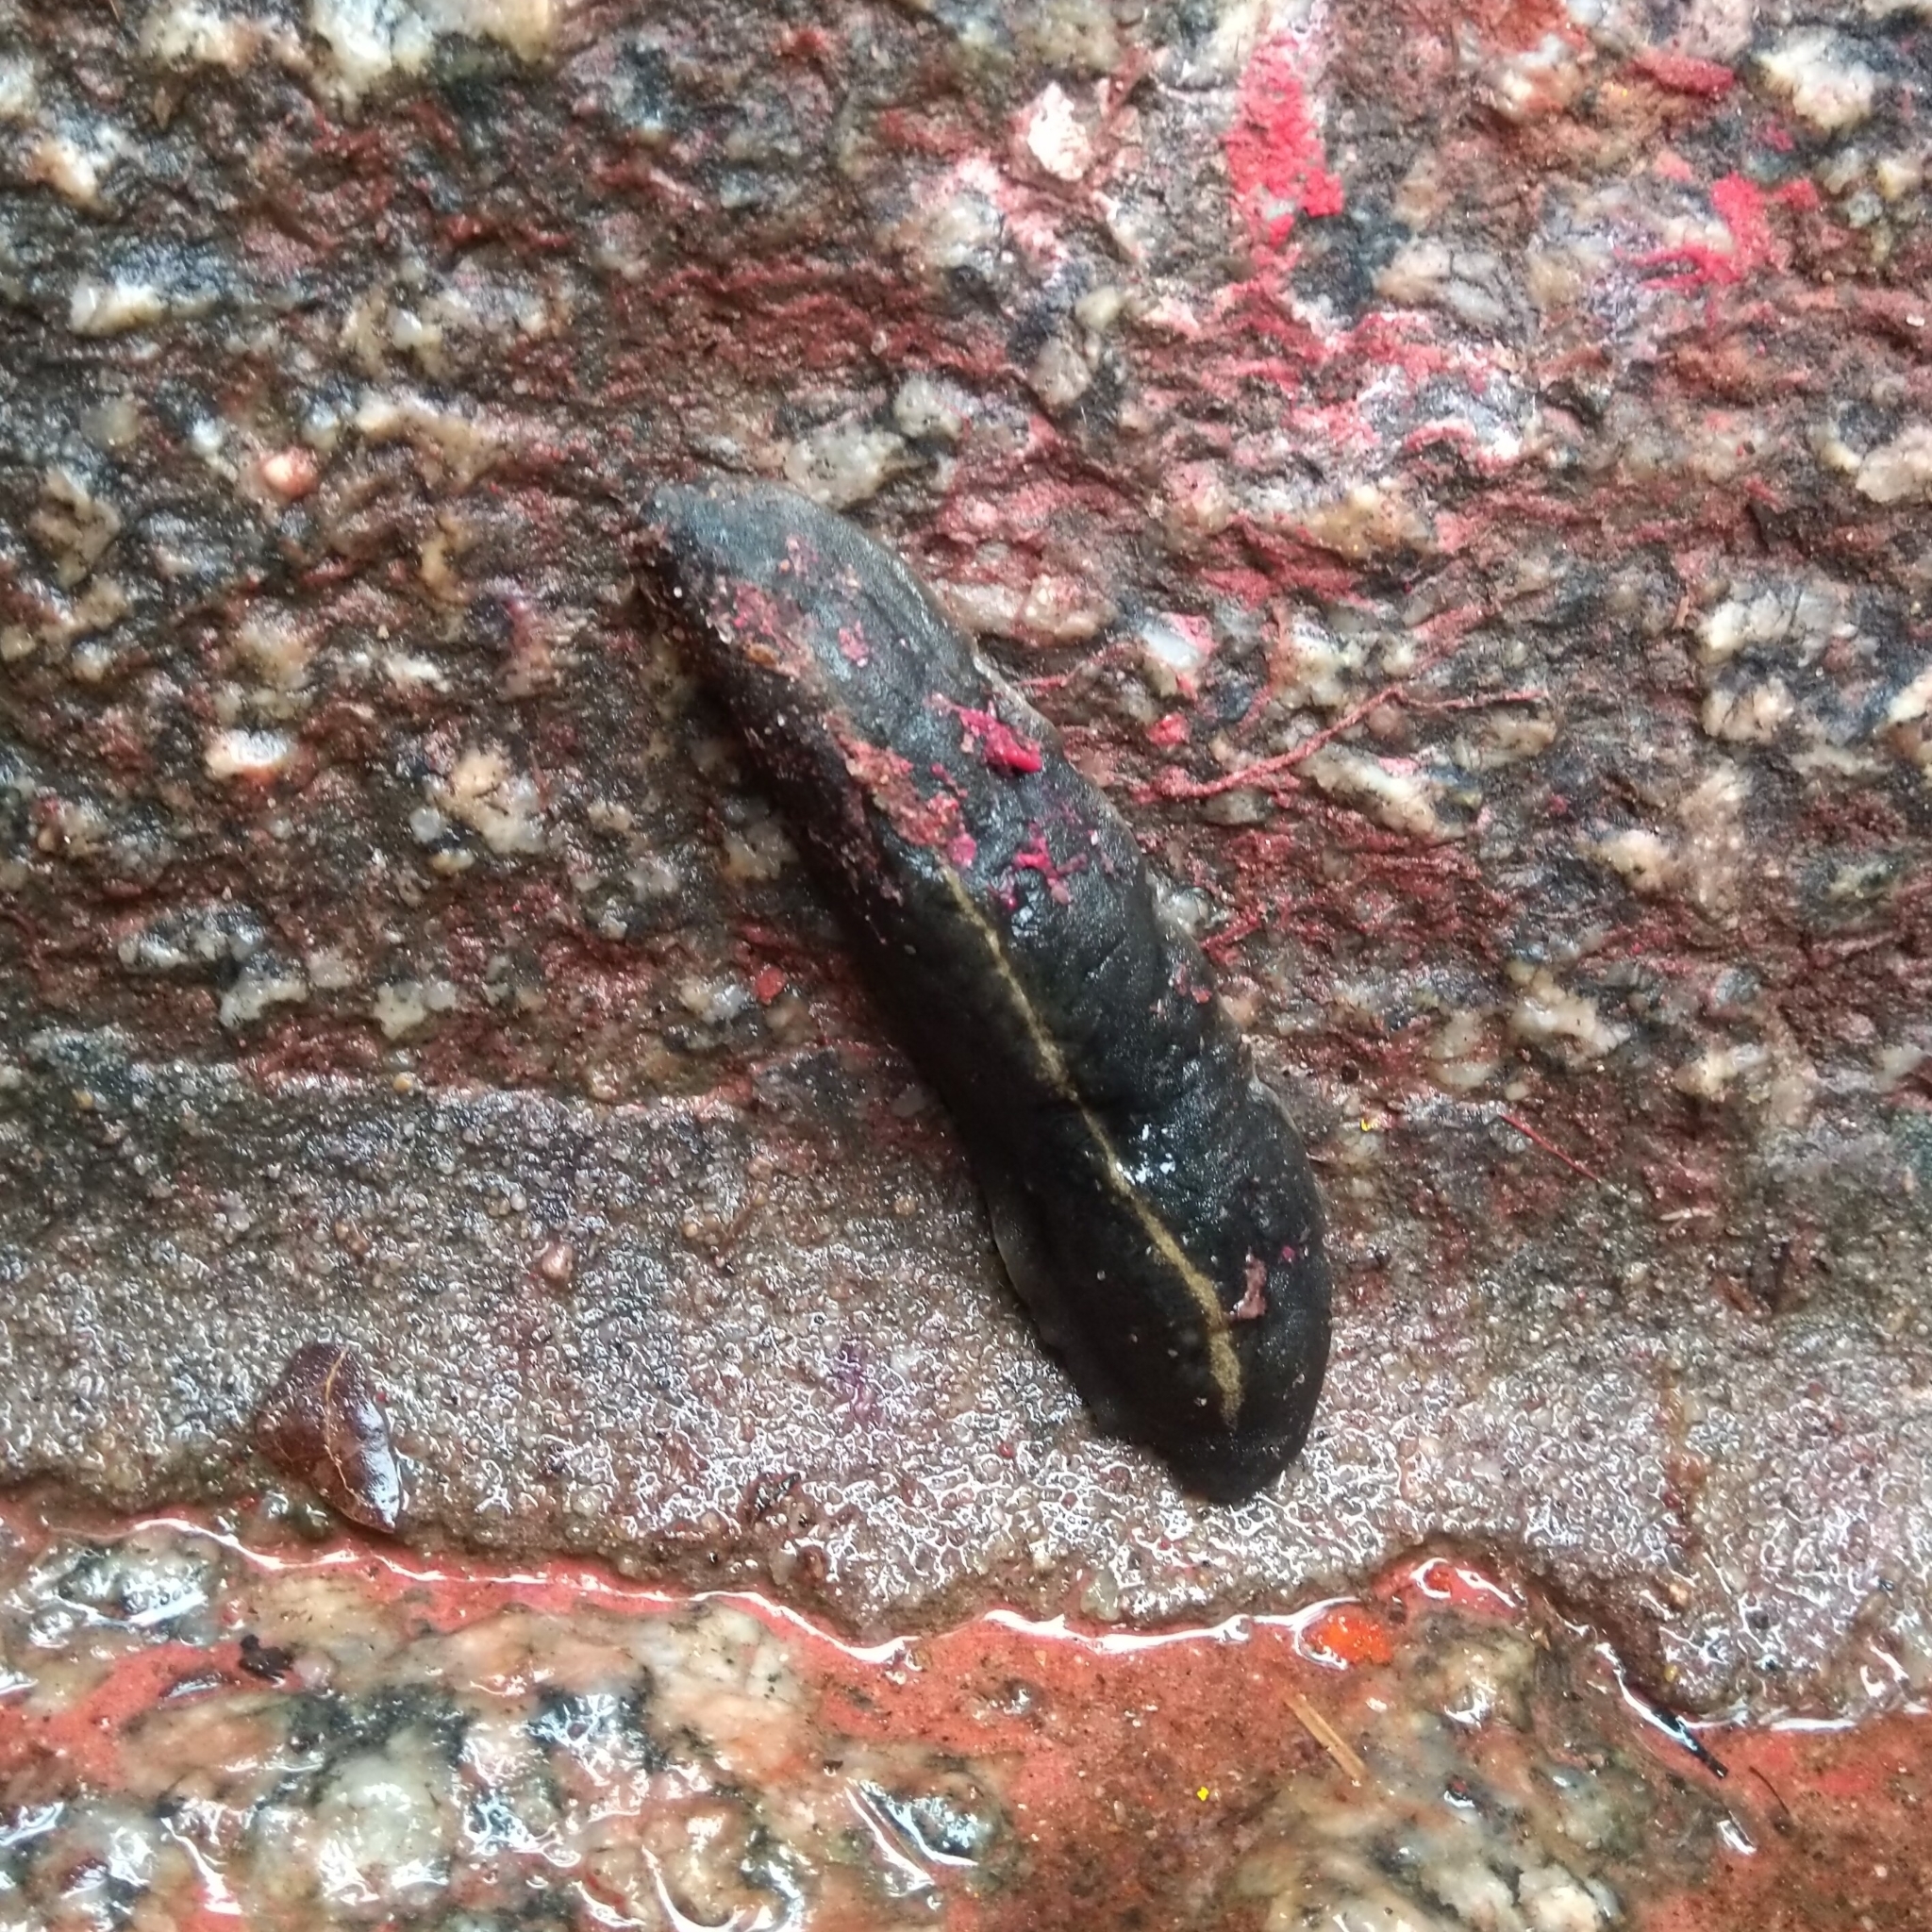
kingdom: Animalia
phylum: Mollusca
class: Gastropoda
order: Systellommatophora
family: Veronicellidae
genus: Laevicaulis
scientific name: Laevicaulis alte
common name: Tropical leatherleaf
